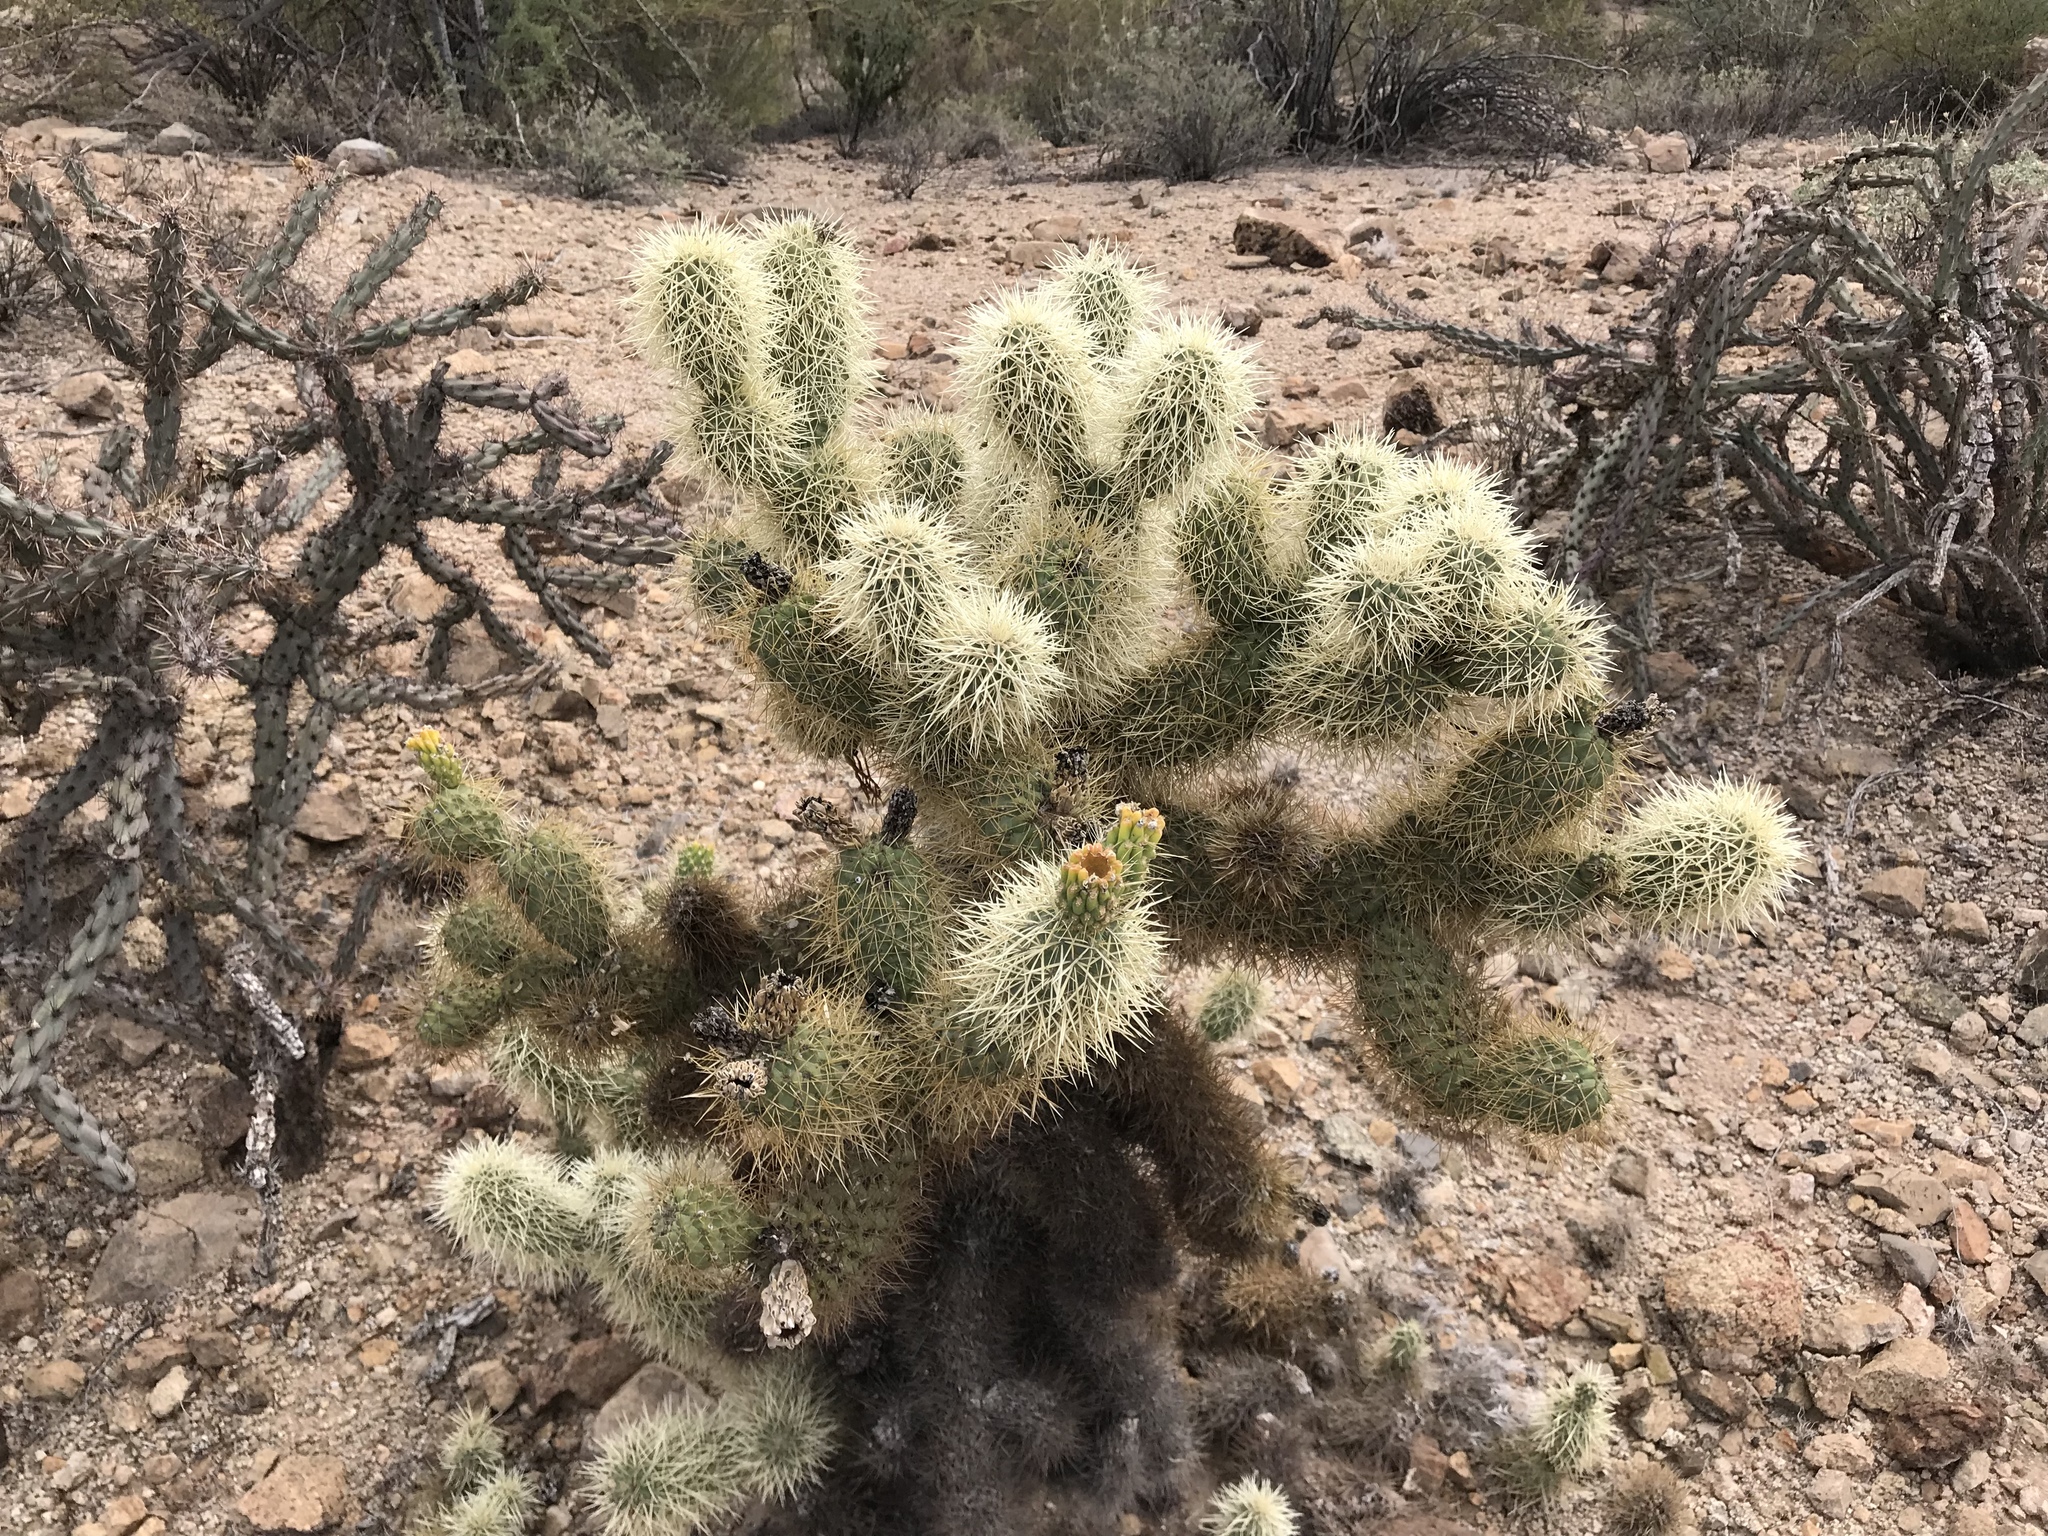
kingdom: Plantae
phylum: Tracheophyta
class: Magnoliopsida
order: Caryophyllales
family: Cactaceae
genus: Cylindropuntia
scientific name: Cylindropuntia fosbergii
